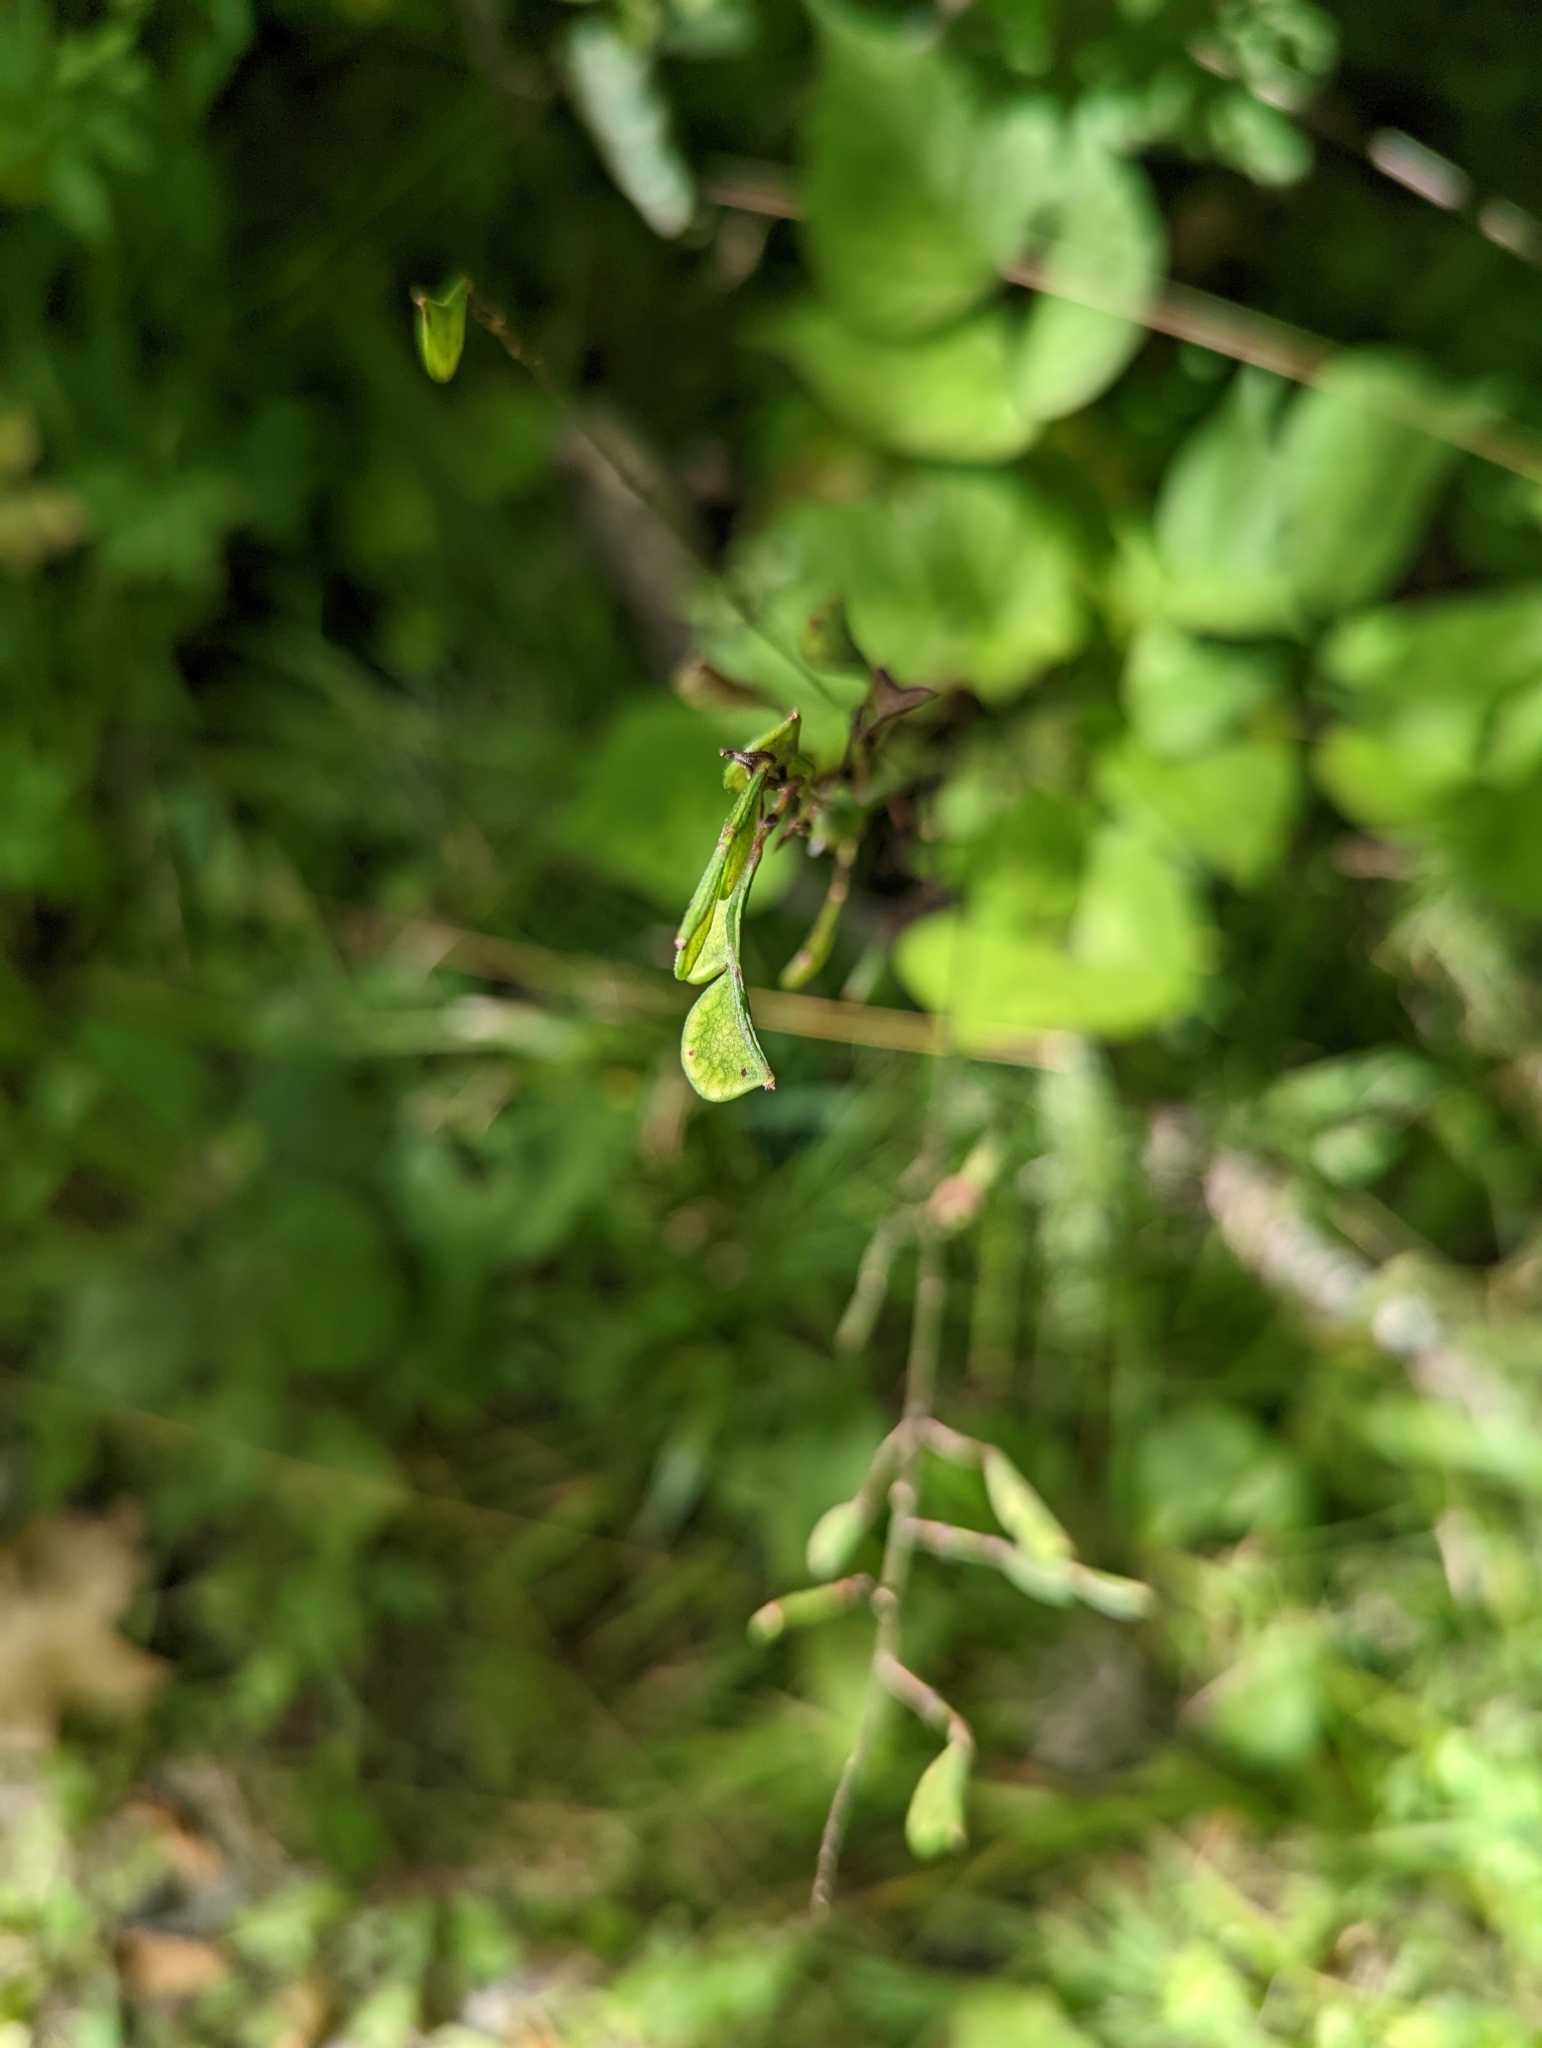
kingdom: Plantae
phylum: Tracheophyta
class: Magnoliopsida
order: Fabales
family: Fabaceae
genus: Hylodesmum
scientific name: Hylodesmum glutinosum
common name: Clustered-leaved tick-trefoil
